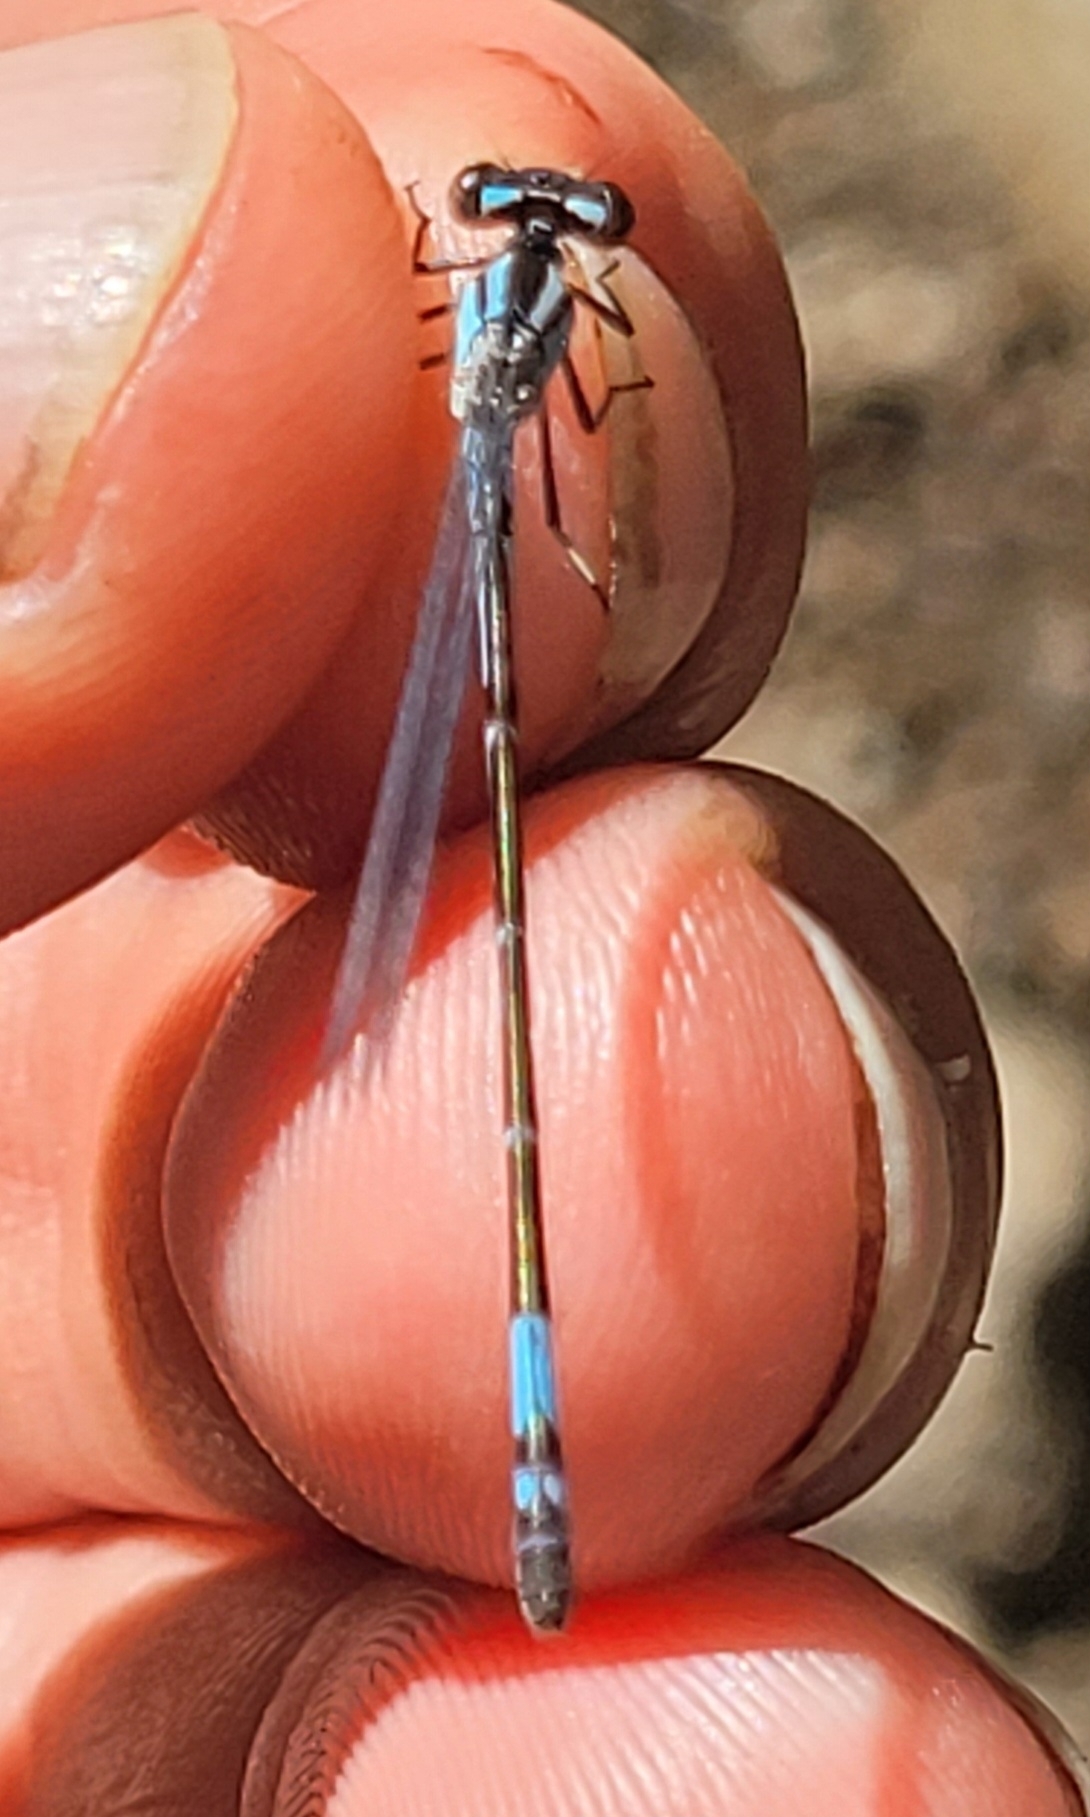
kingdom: Animalia
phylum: Arthropoda
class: Insecta
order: Odonata
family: Coenagrionidae
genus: Enallagma
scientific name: Enallagma aspersum
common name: Azure bluet
